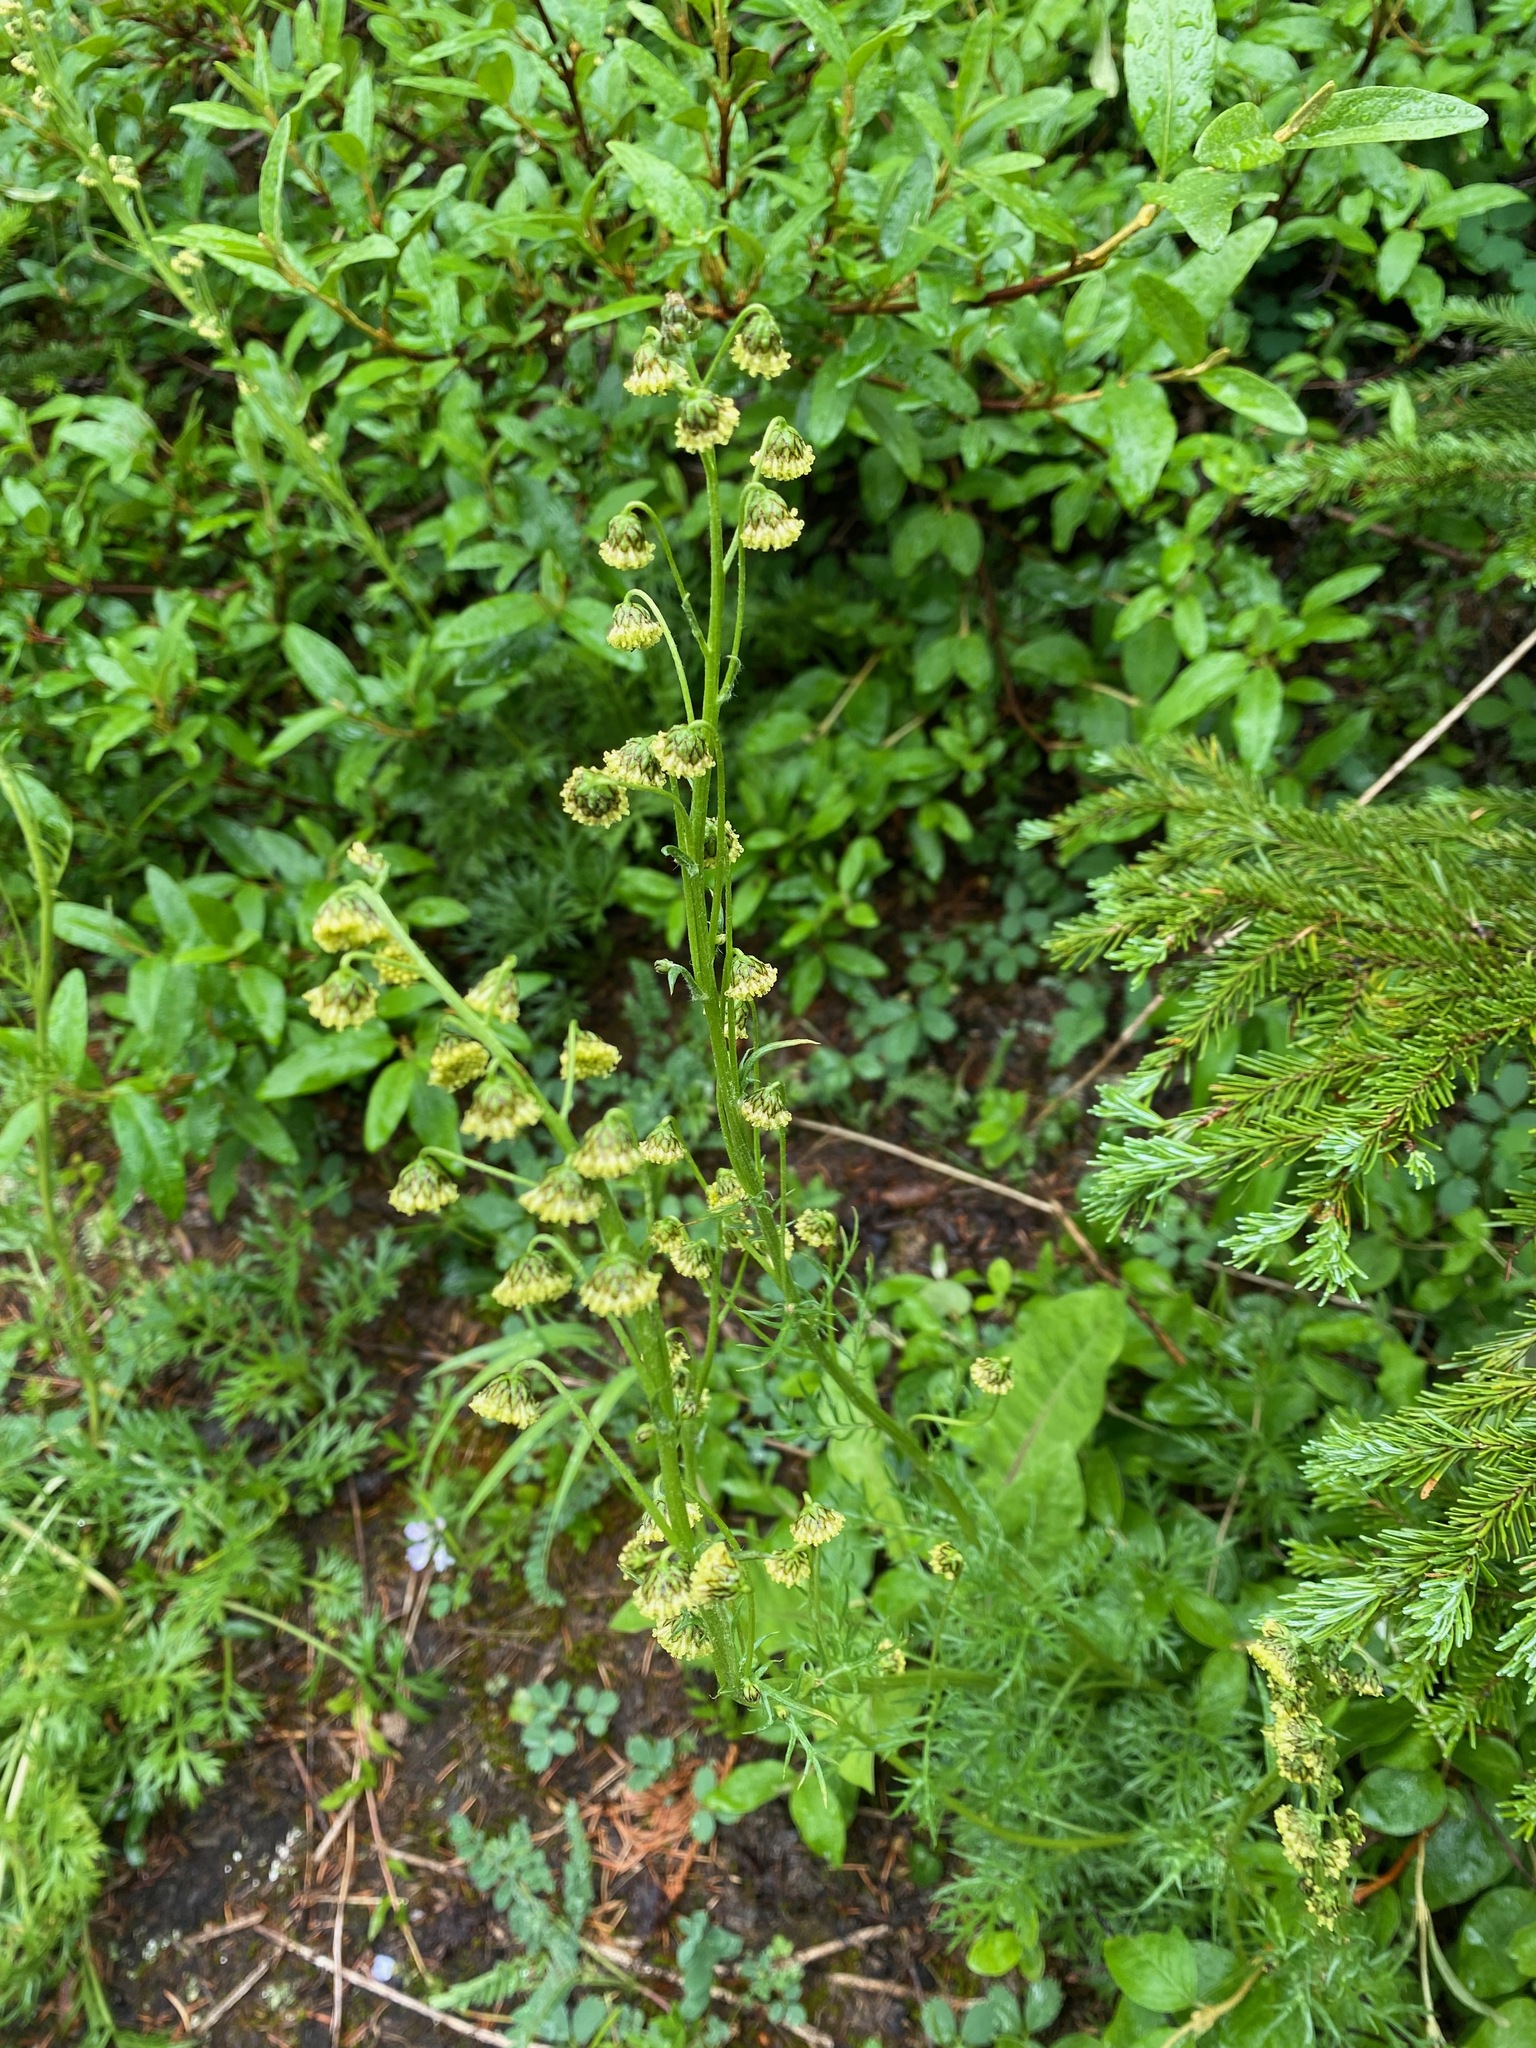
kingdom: Plantae
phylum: Tracheophyta
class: Magnoliopsida
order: Asterales
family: Asteraceae
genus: Artemisia
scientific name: Artemisia norvegica
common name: Norwegian mugwort
